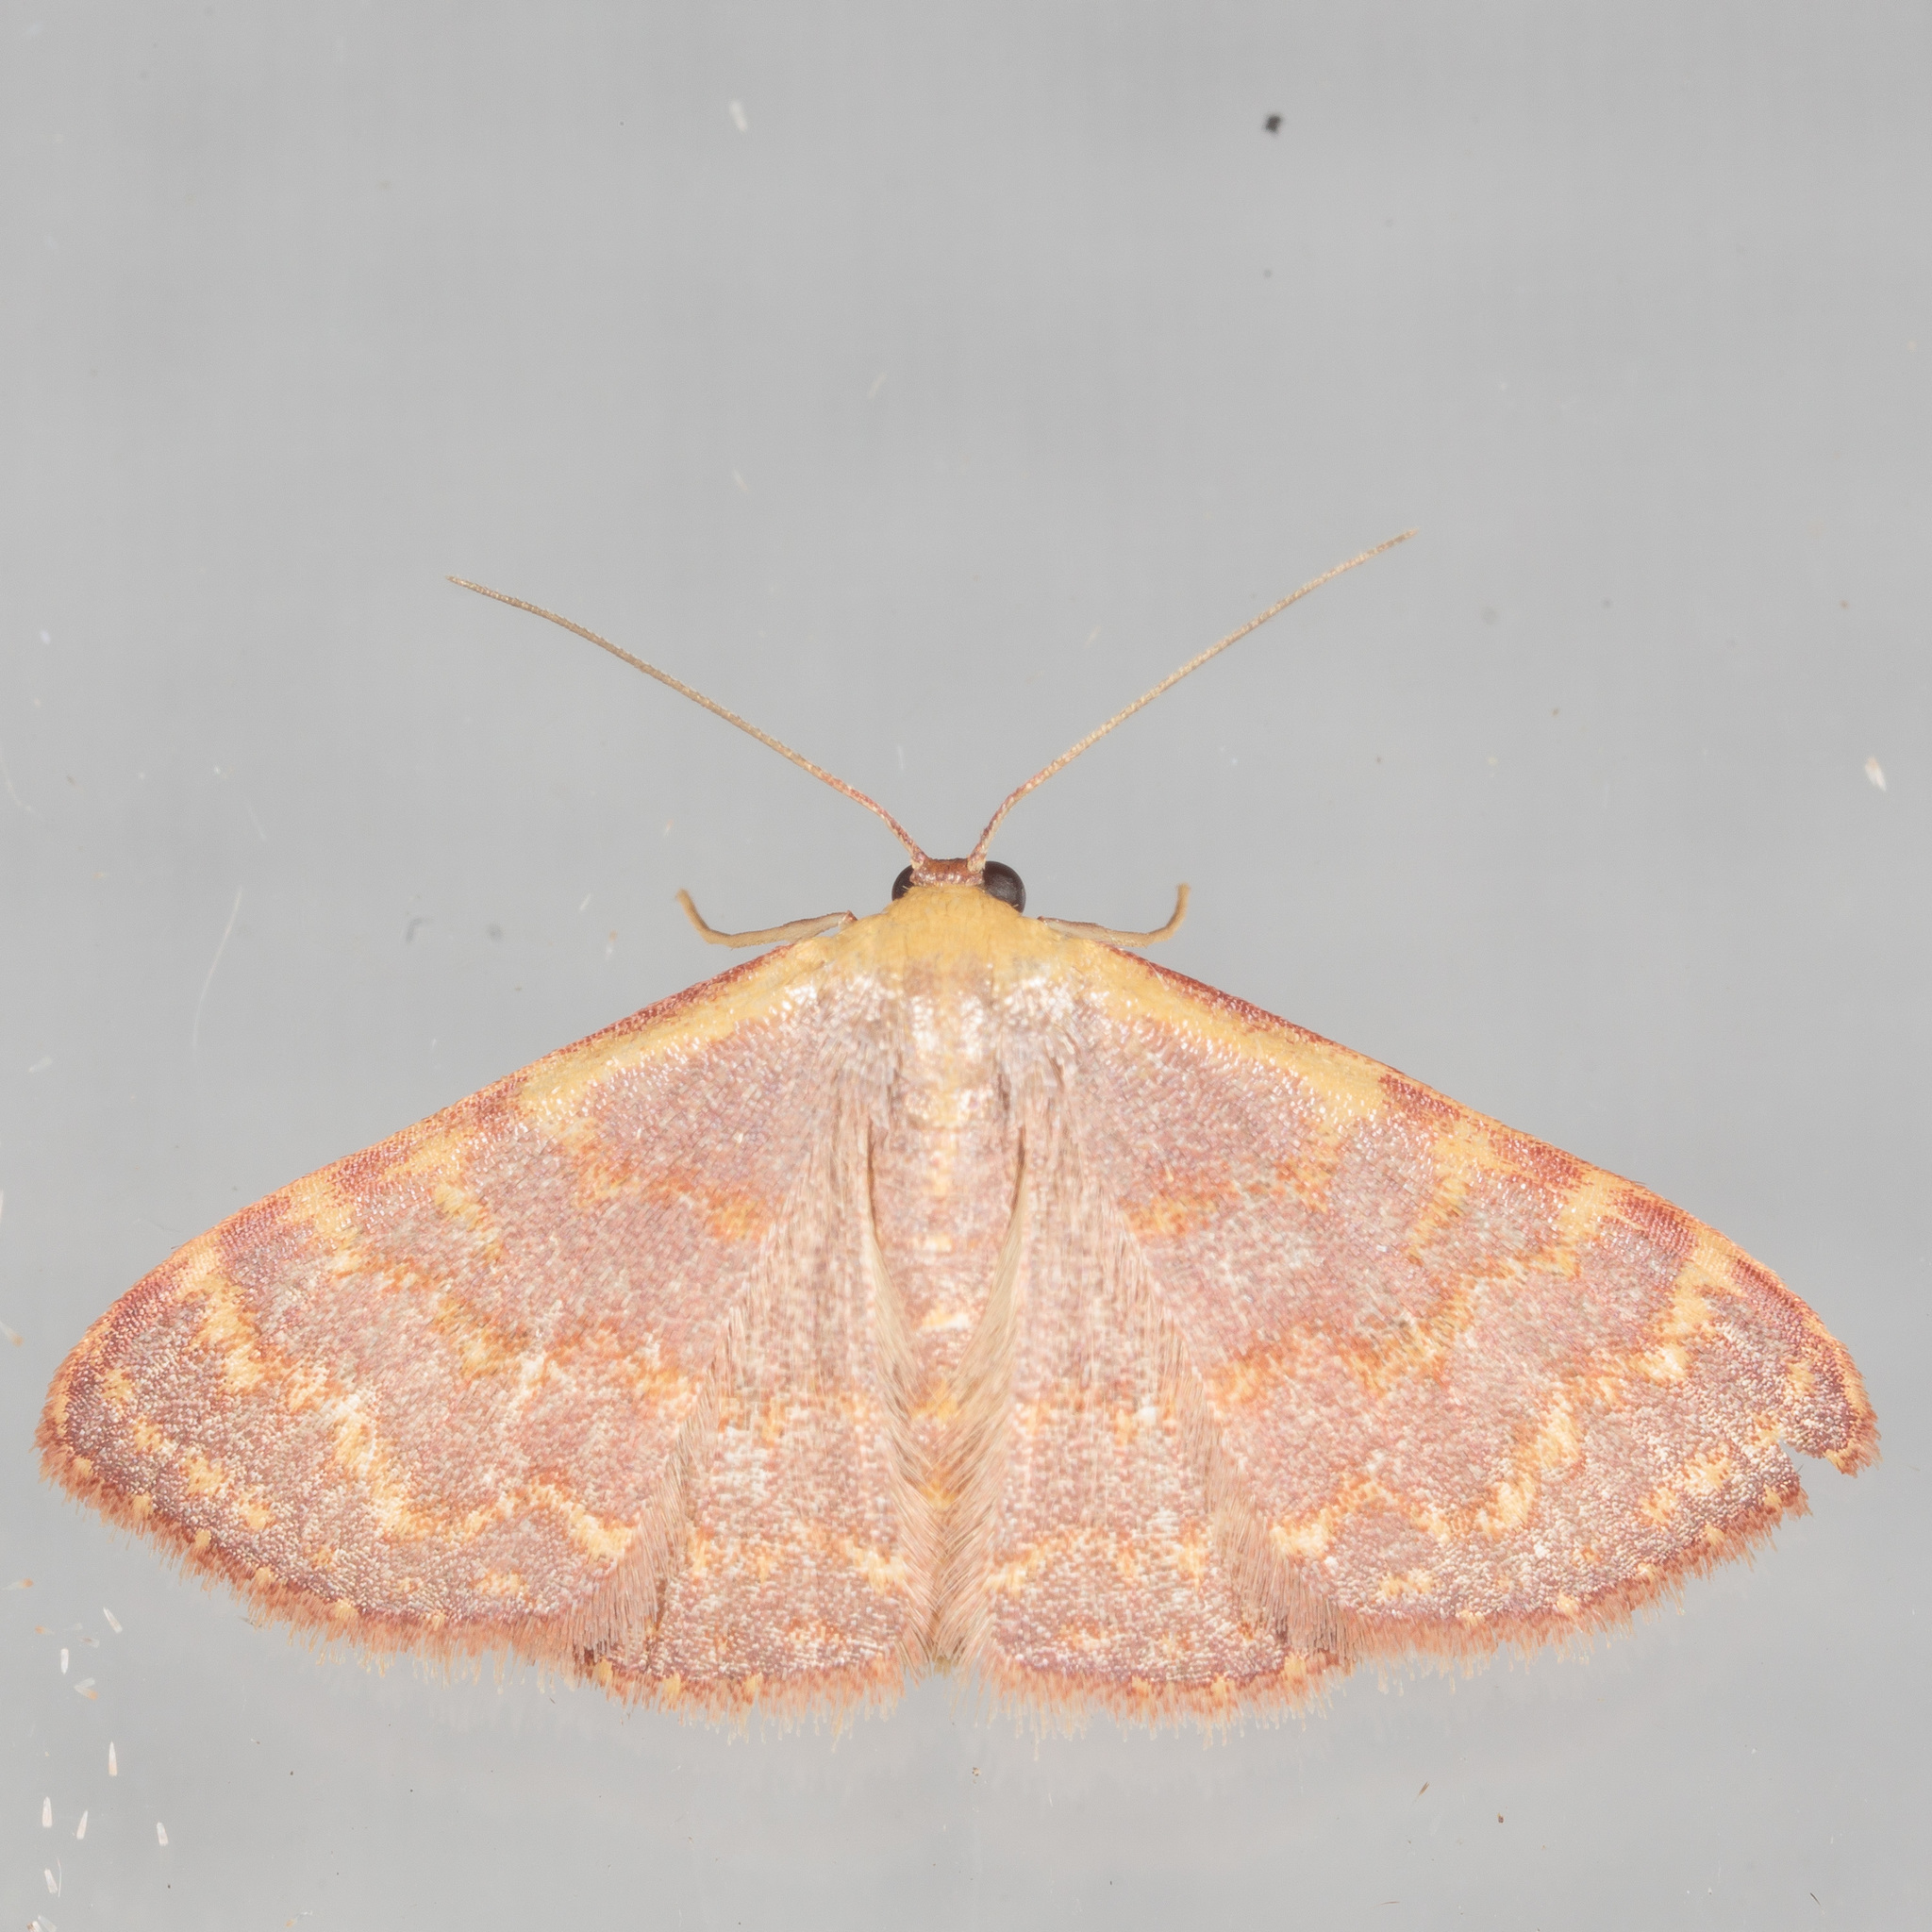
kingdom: Animalia
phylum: Arthropoda
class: Insecta
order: Lepidoptera
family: Geometridae
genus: Leptostales
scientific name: Leptostales pannaria
